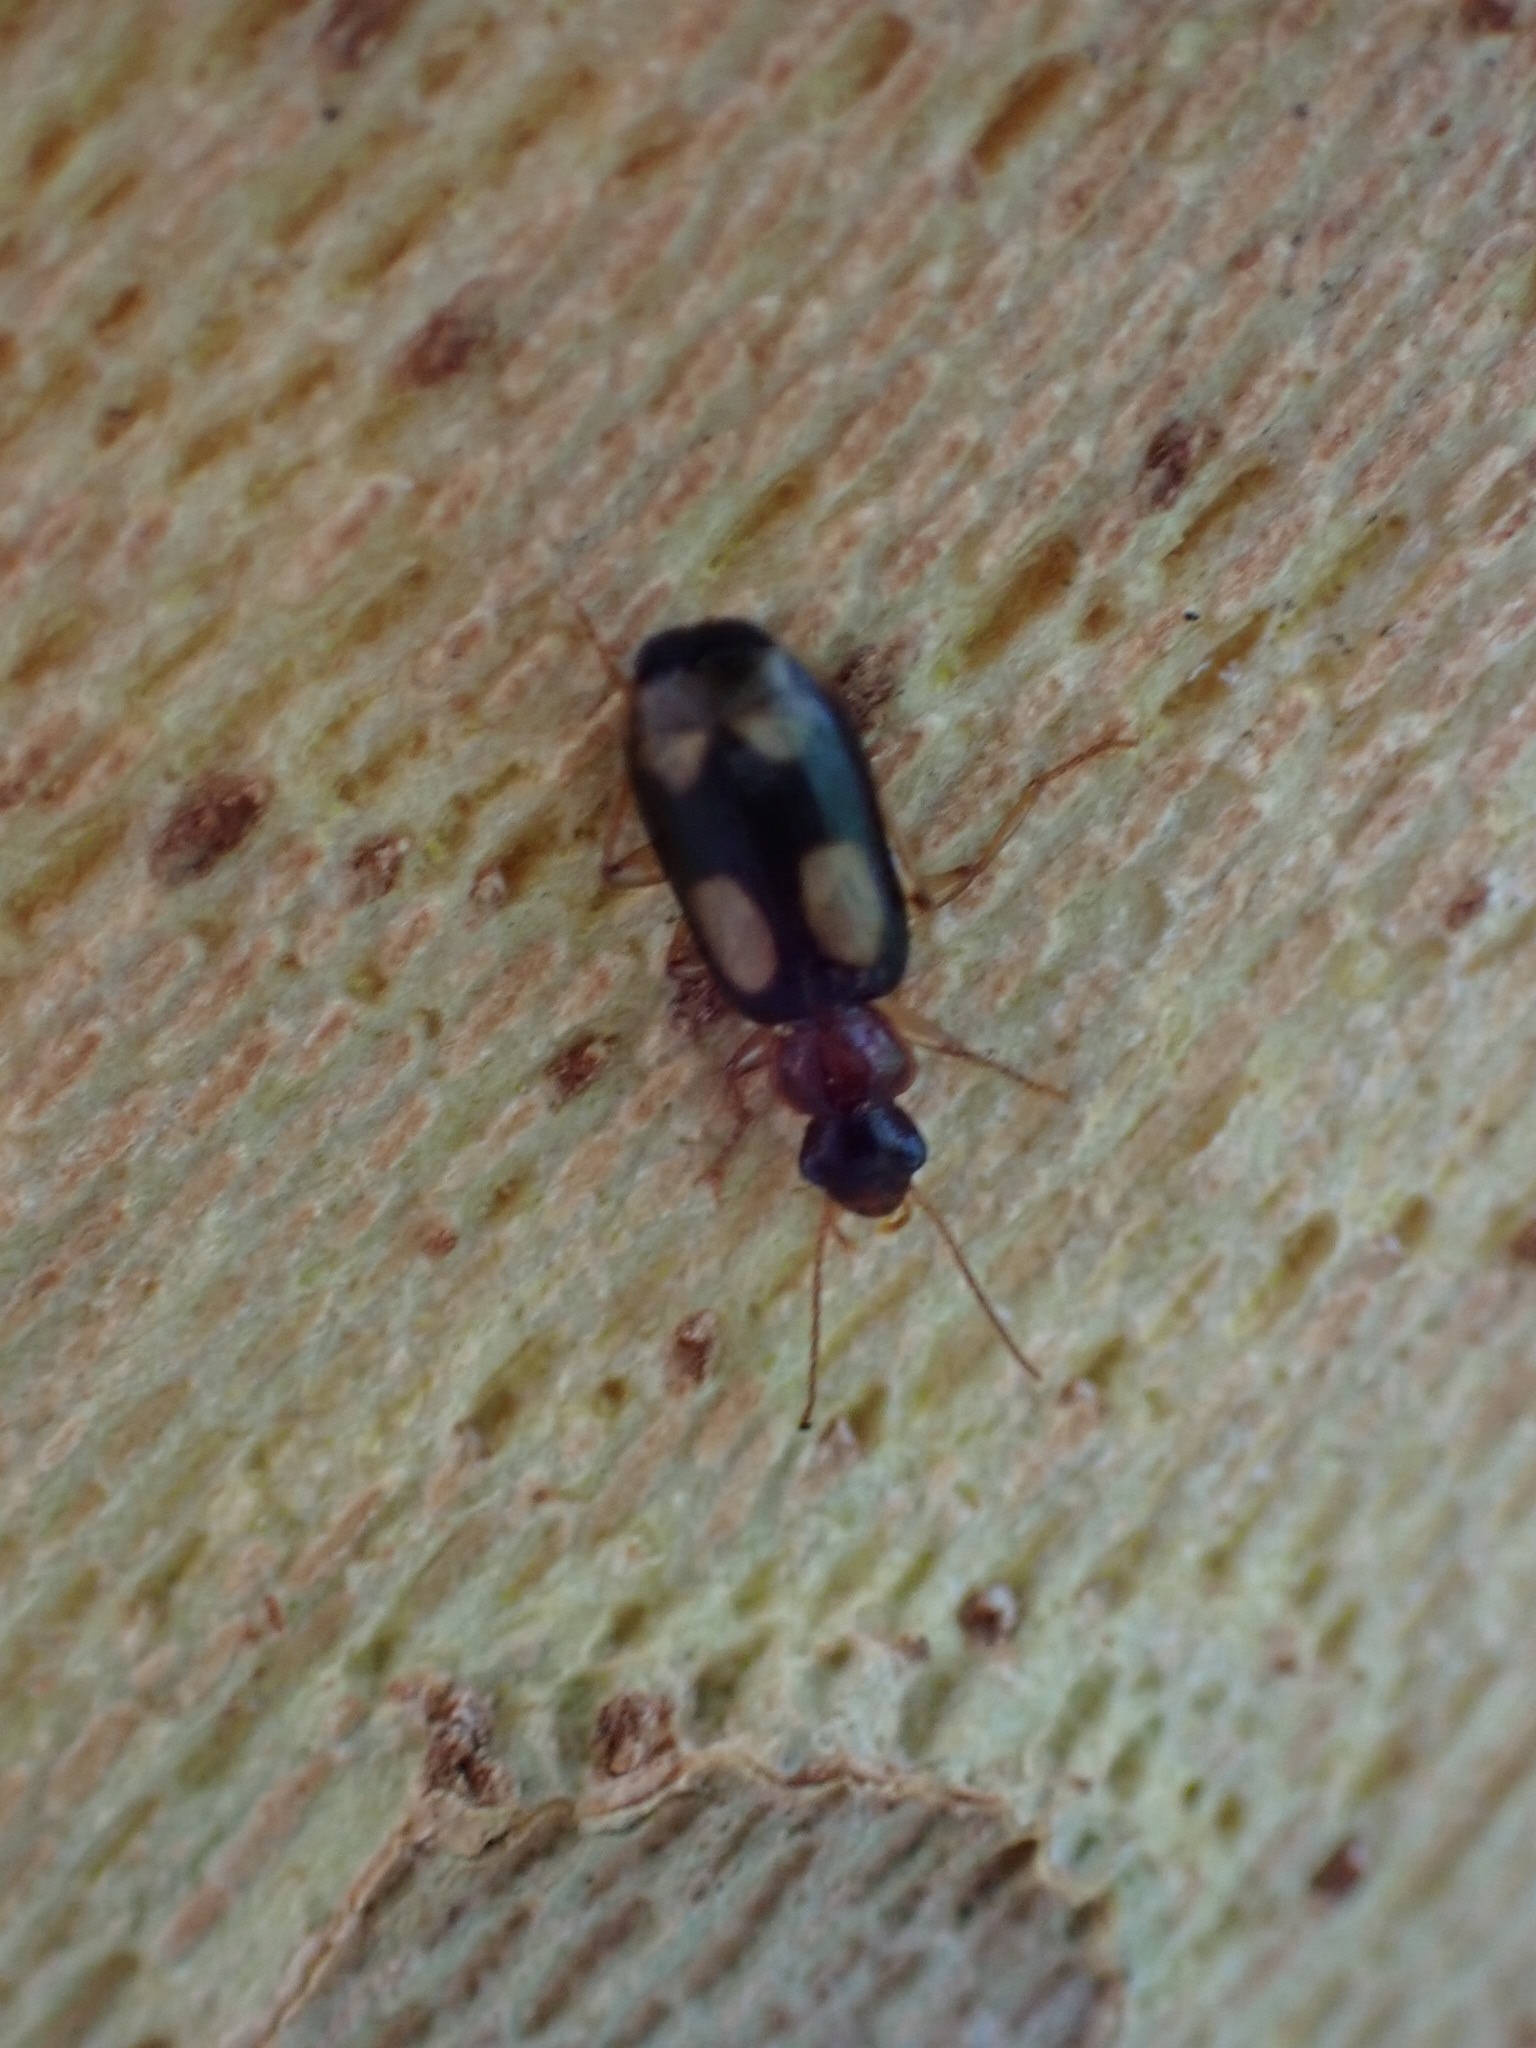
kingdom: Animalia
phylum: Arthropoda
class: Insecta
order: Coleoptera
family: Carabidae
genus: Dromius
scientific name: Dromius quadrimaculatus
